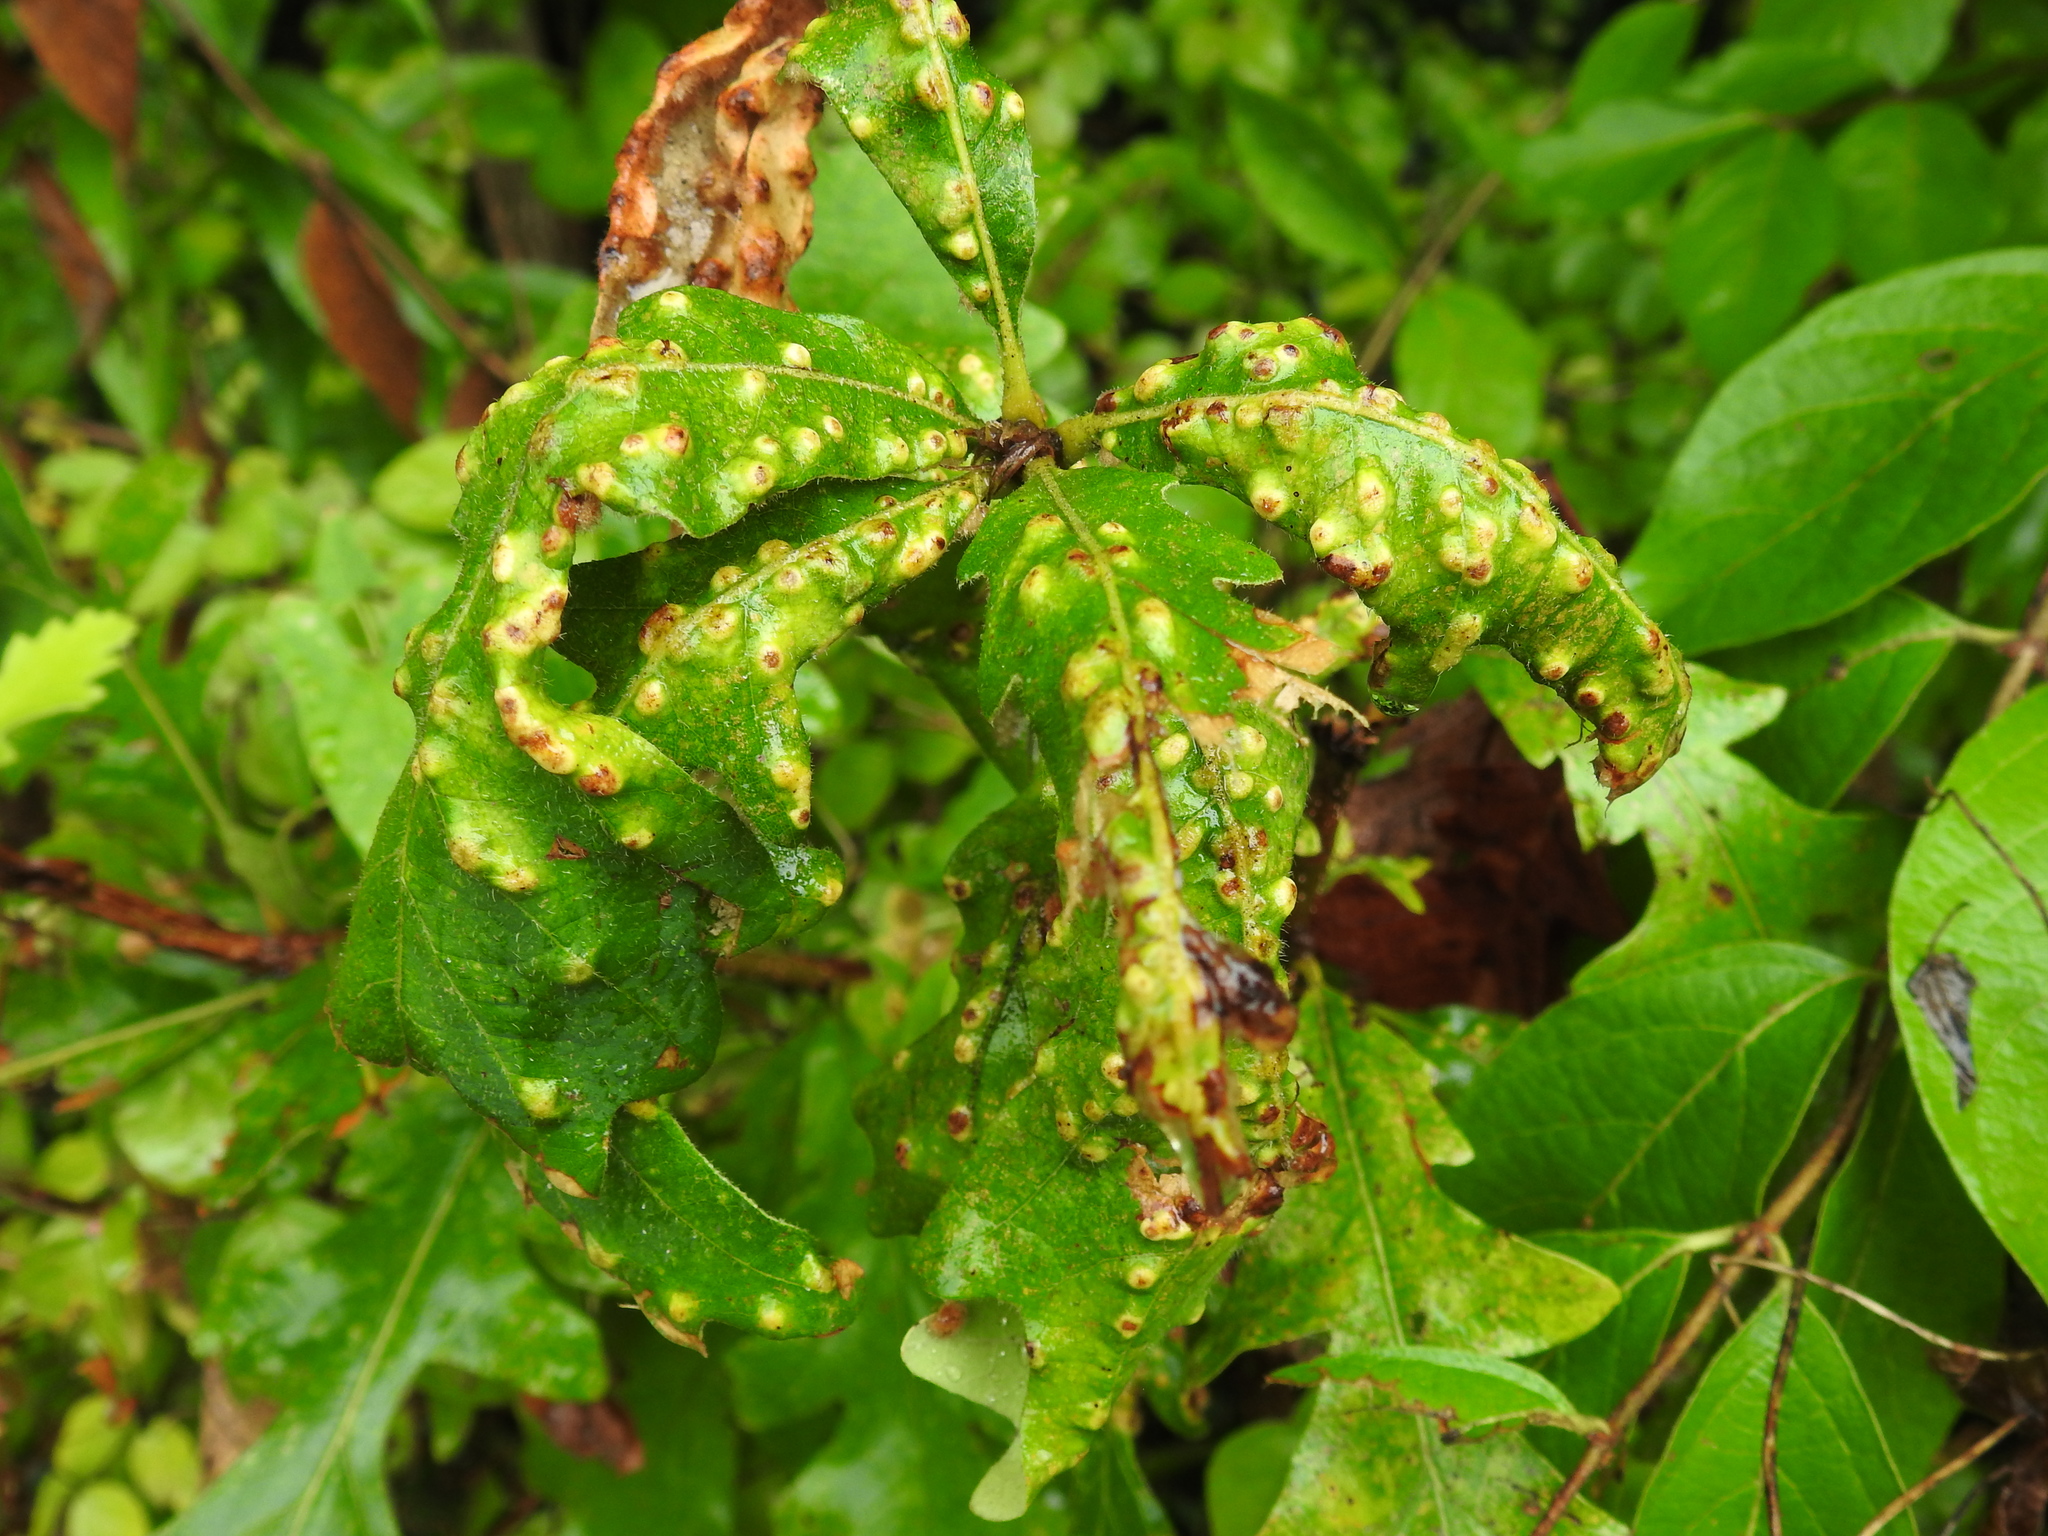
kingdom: Animalia
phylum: Arthropoda
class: Insecta
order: Hymenoptera
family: Cynipidae
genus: Neuroterus
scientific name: Neuroterus quercusverrucarum
